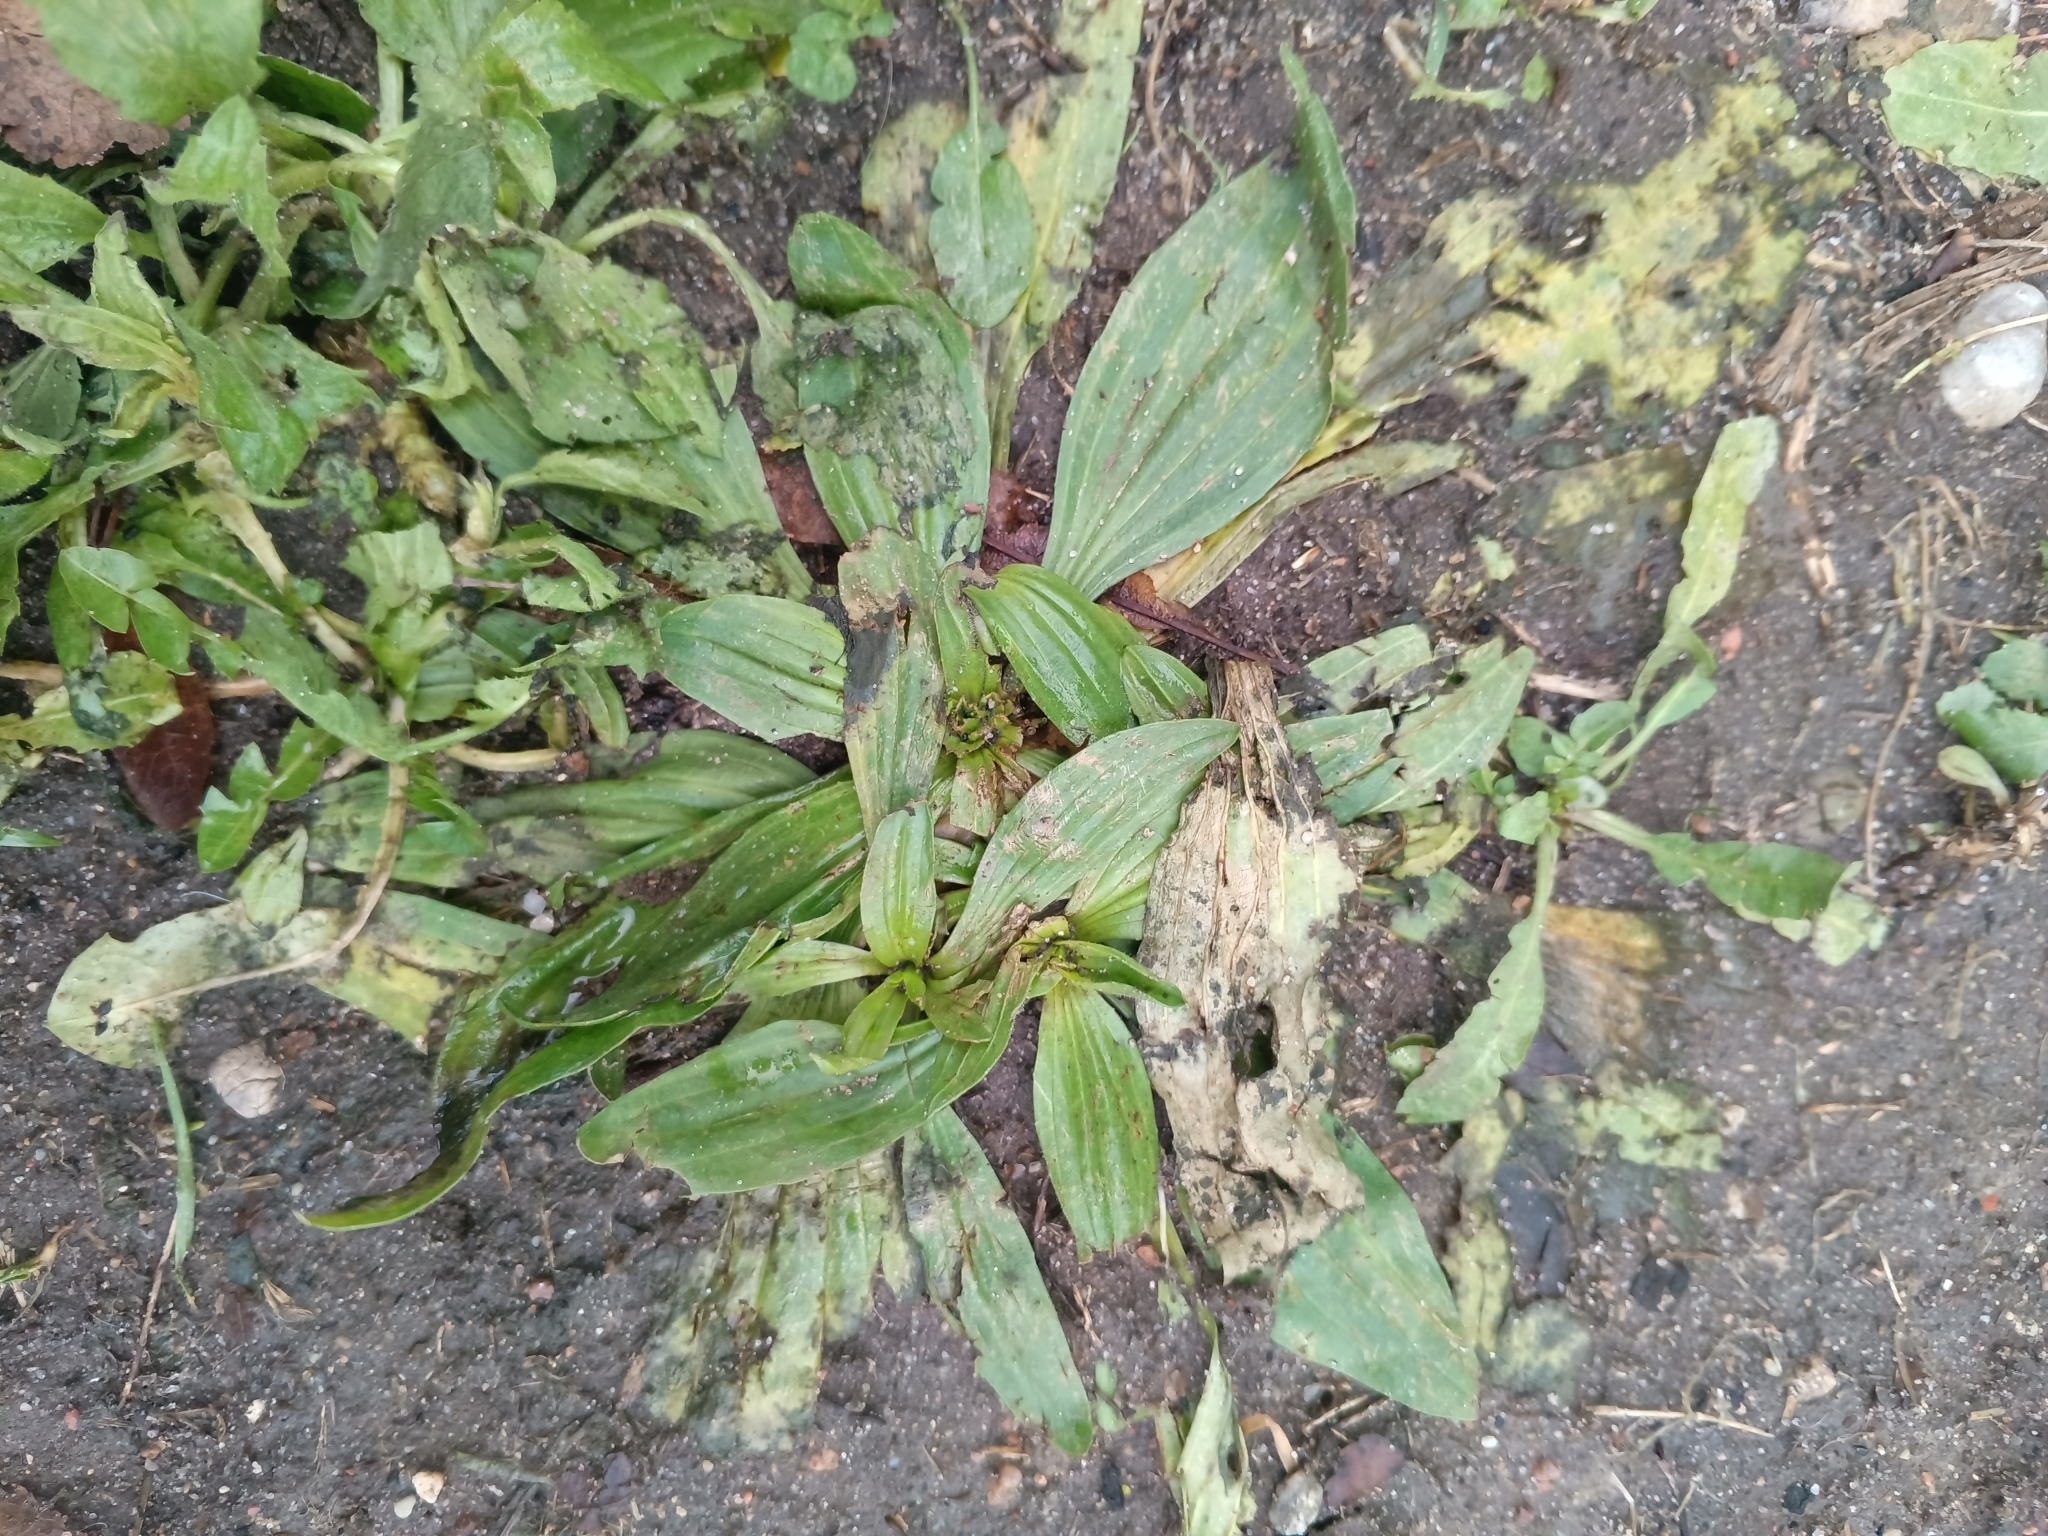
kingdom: Plantae
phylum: Tracheophyta
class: Magnoliopsida
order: Lamiales
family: Plantaginaceae
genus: Plantago
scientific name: Plantago lanceolata
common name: Ribwort plantain
